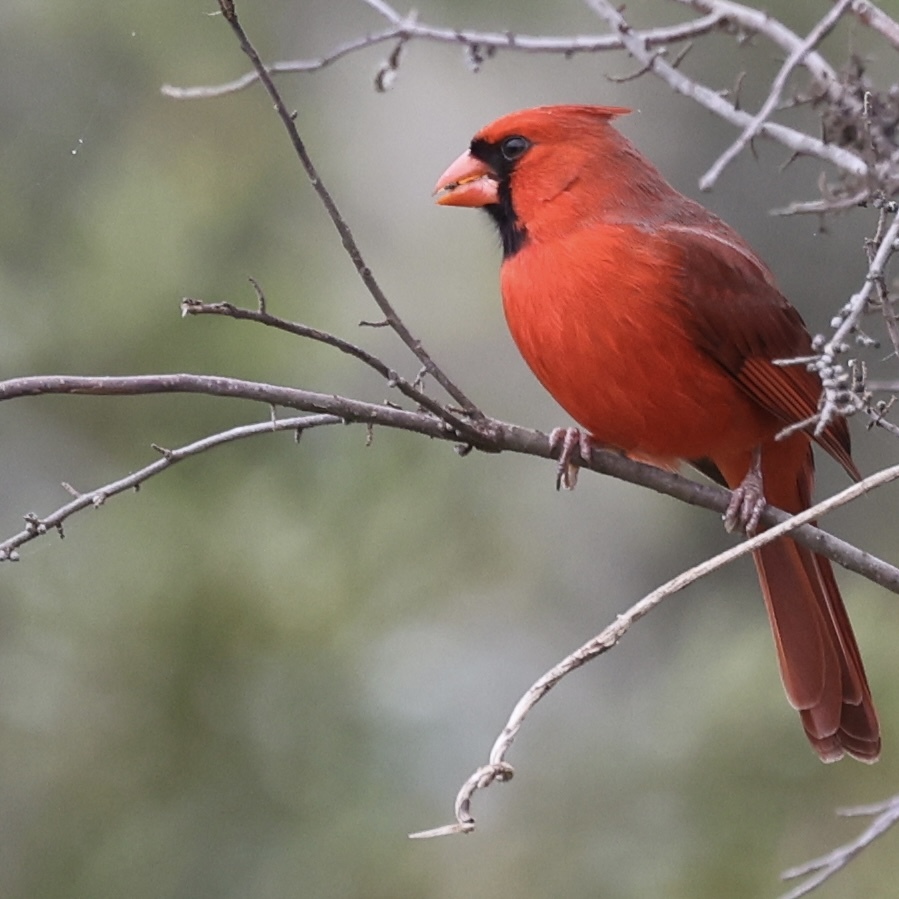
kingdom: Animalia
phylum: Chordata
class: Aves
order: Passeriformes
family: Cardinalidae
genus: Cardinalis
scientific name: Cardinalis cardinalis
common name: Northern cardinal
